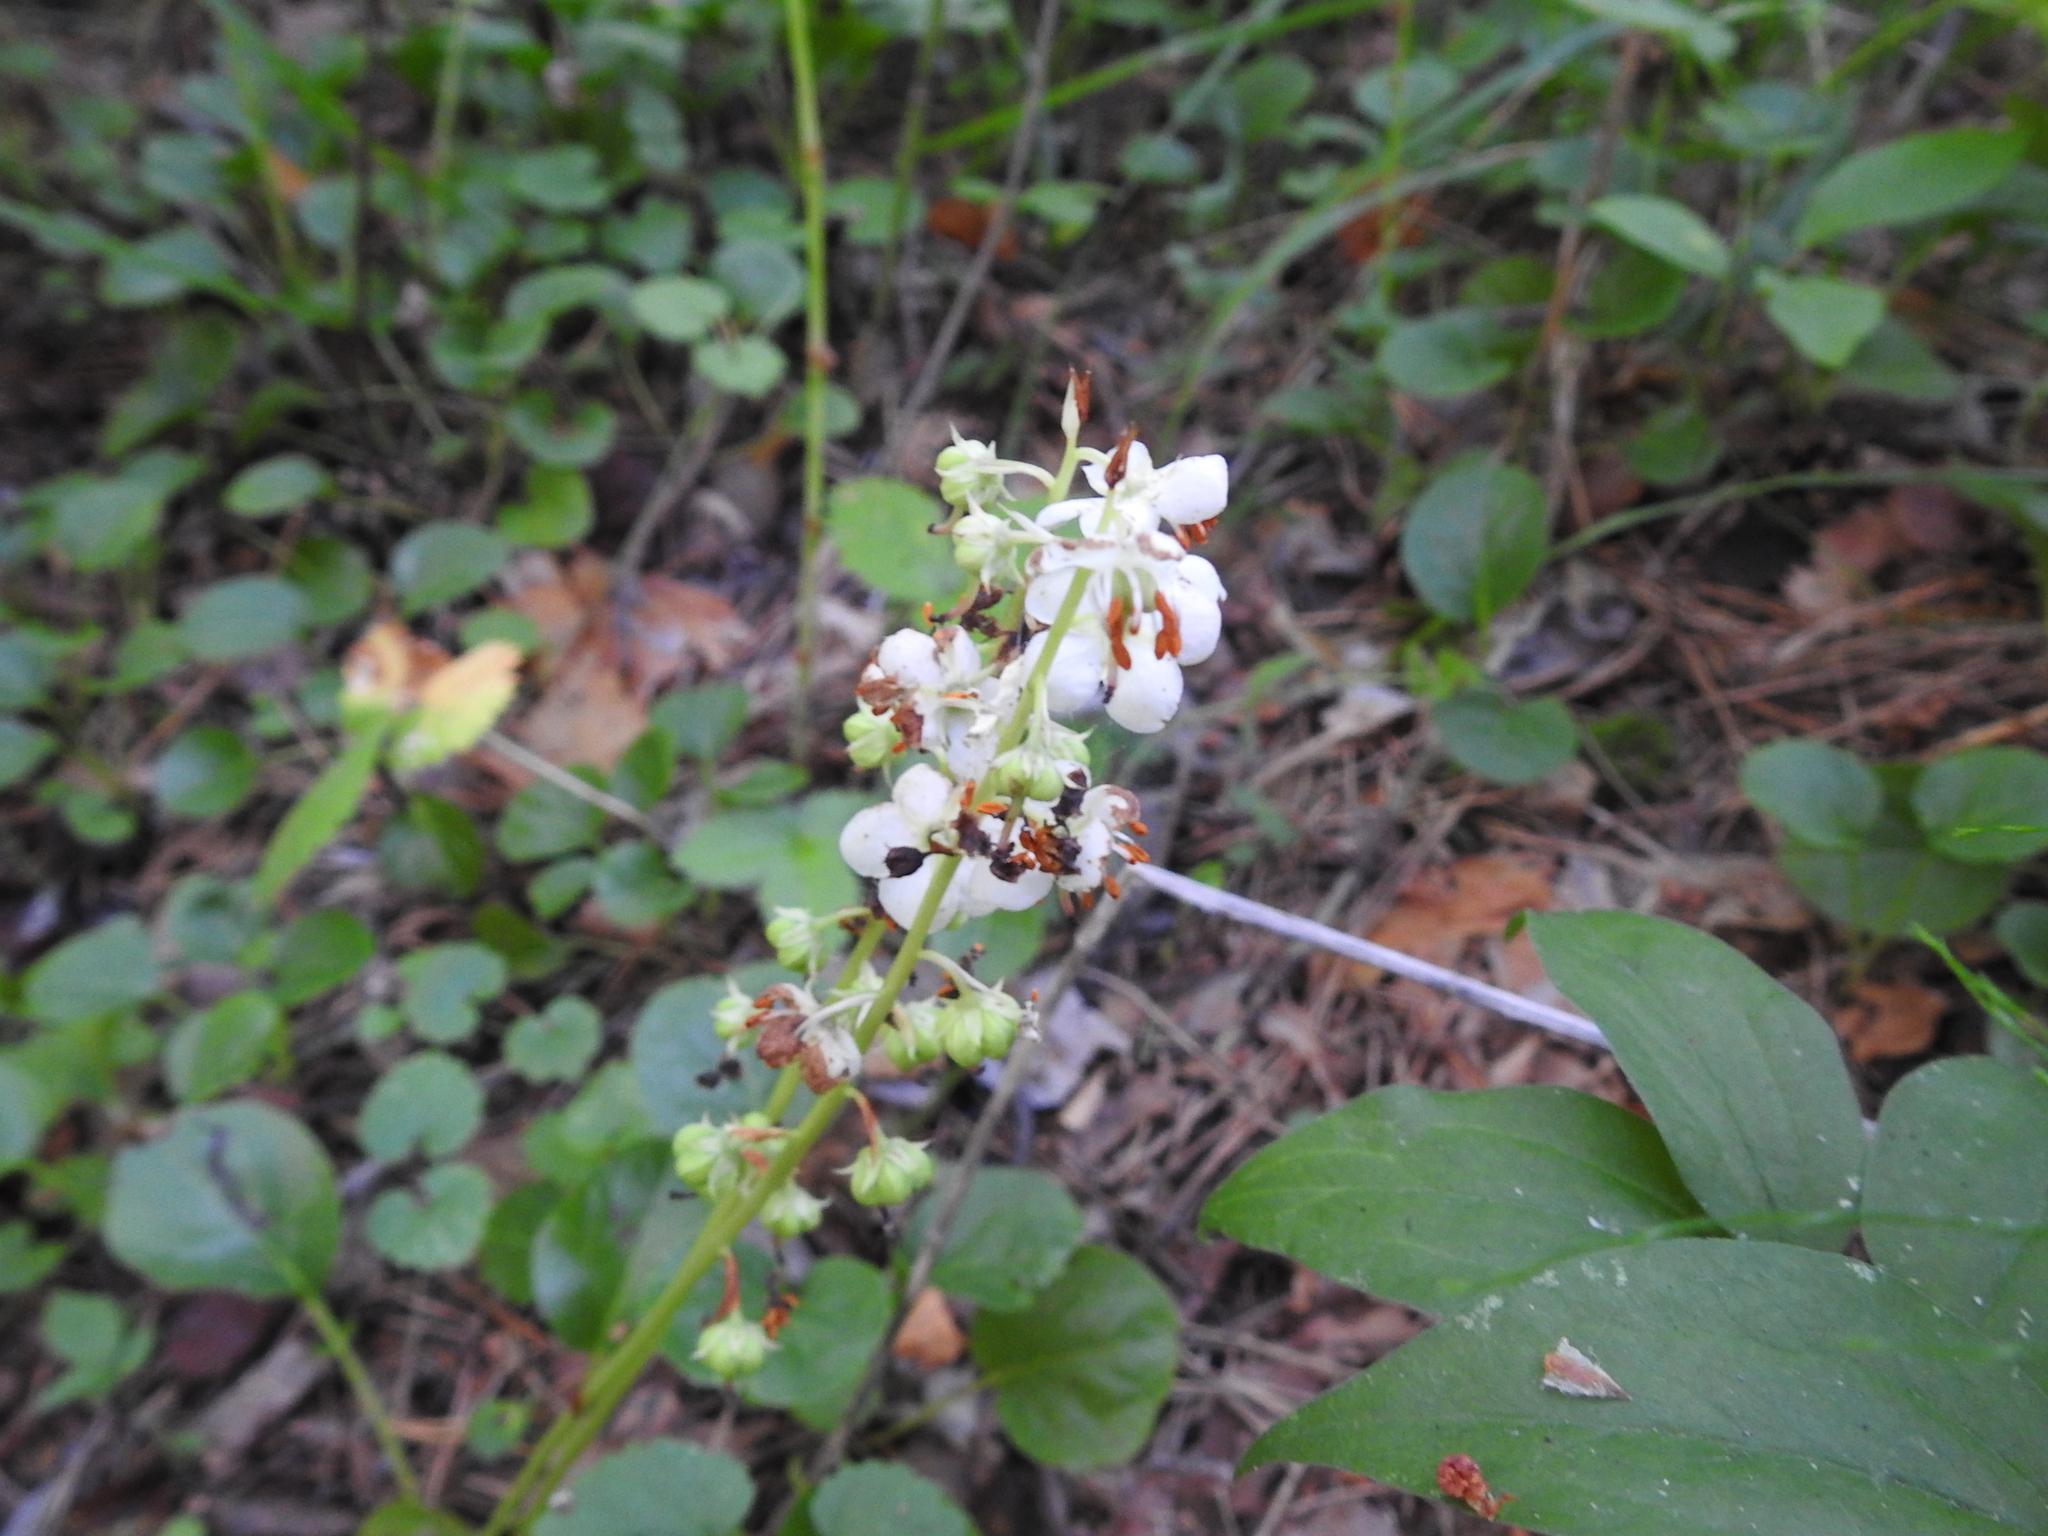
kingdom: Plantae
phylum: Tracheophyta
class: Magnoliopsida
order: Ericales
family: Ericaceae
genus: Pyrola
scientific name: Pyrola rotundifolia
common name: Round-leaved wintergreen
